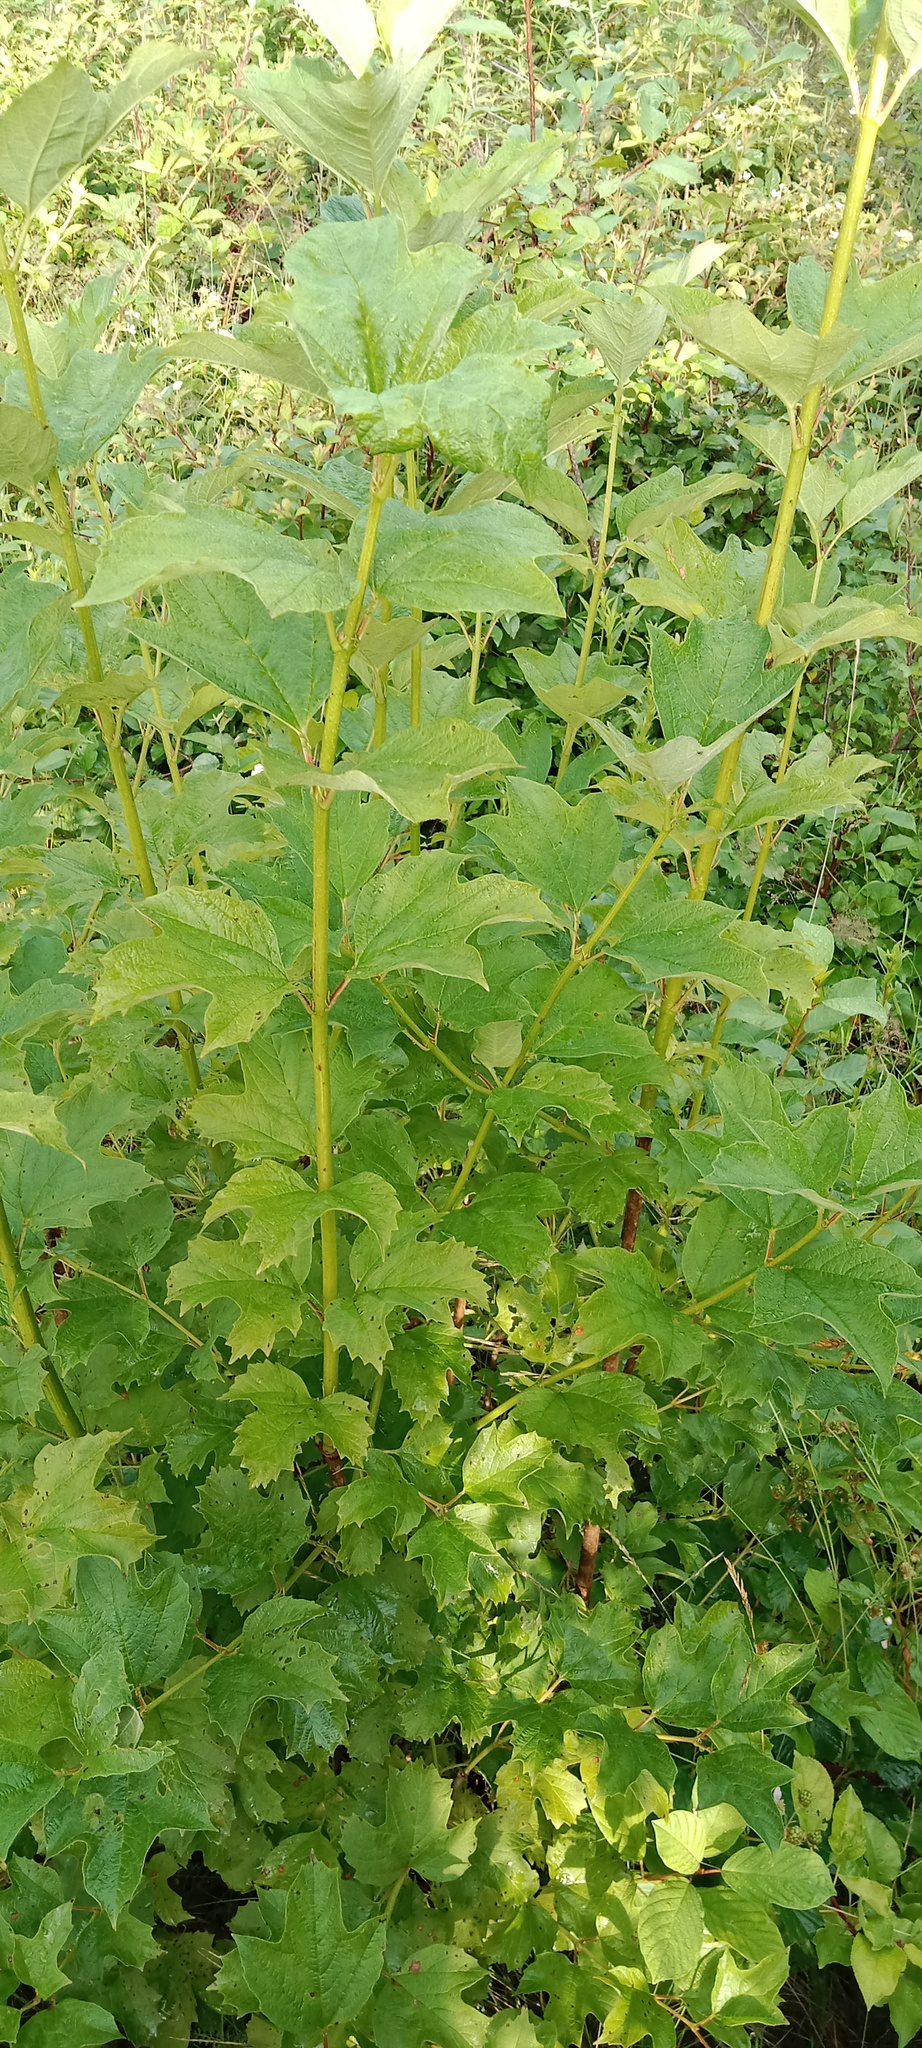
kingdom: Plantae
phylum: Tracheophyta
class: Magnoliopsida
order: Dipsacales
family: Viburnaceae
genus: Viburnum
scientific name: Viburnum opulus
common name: Guelder-rose
